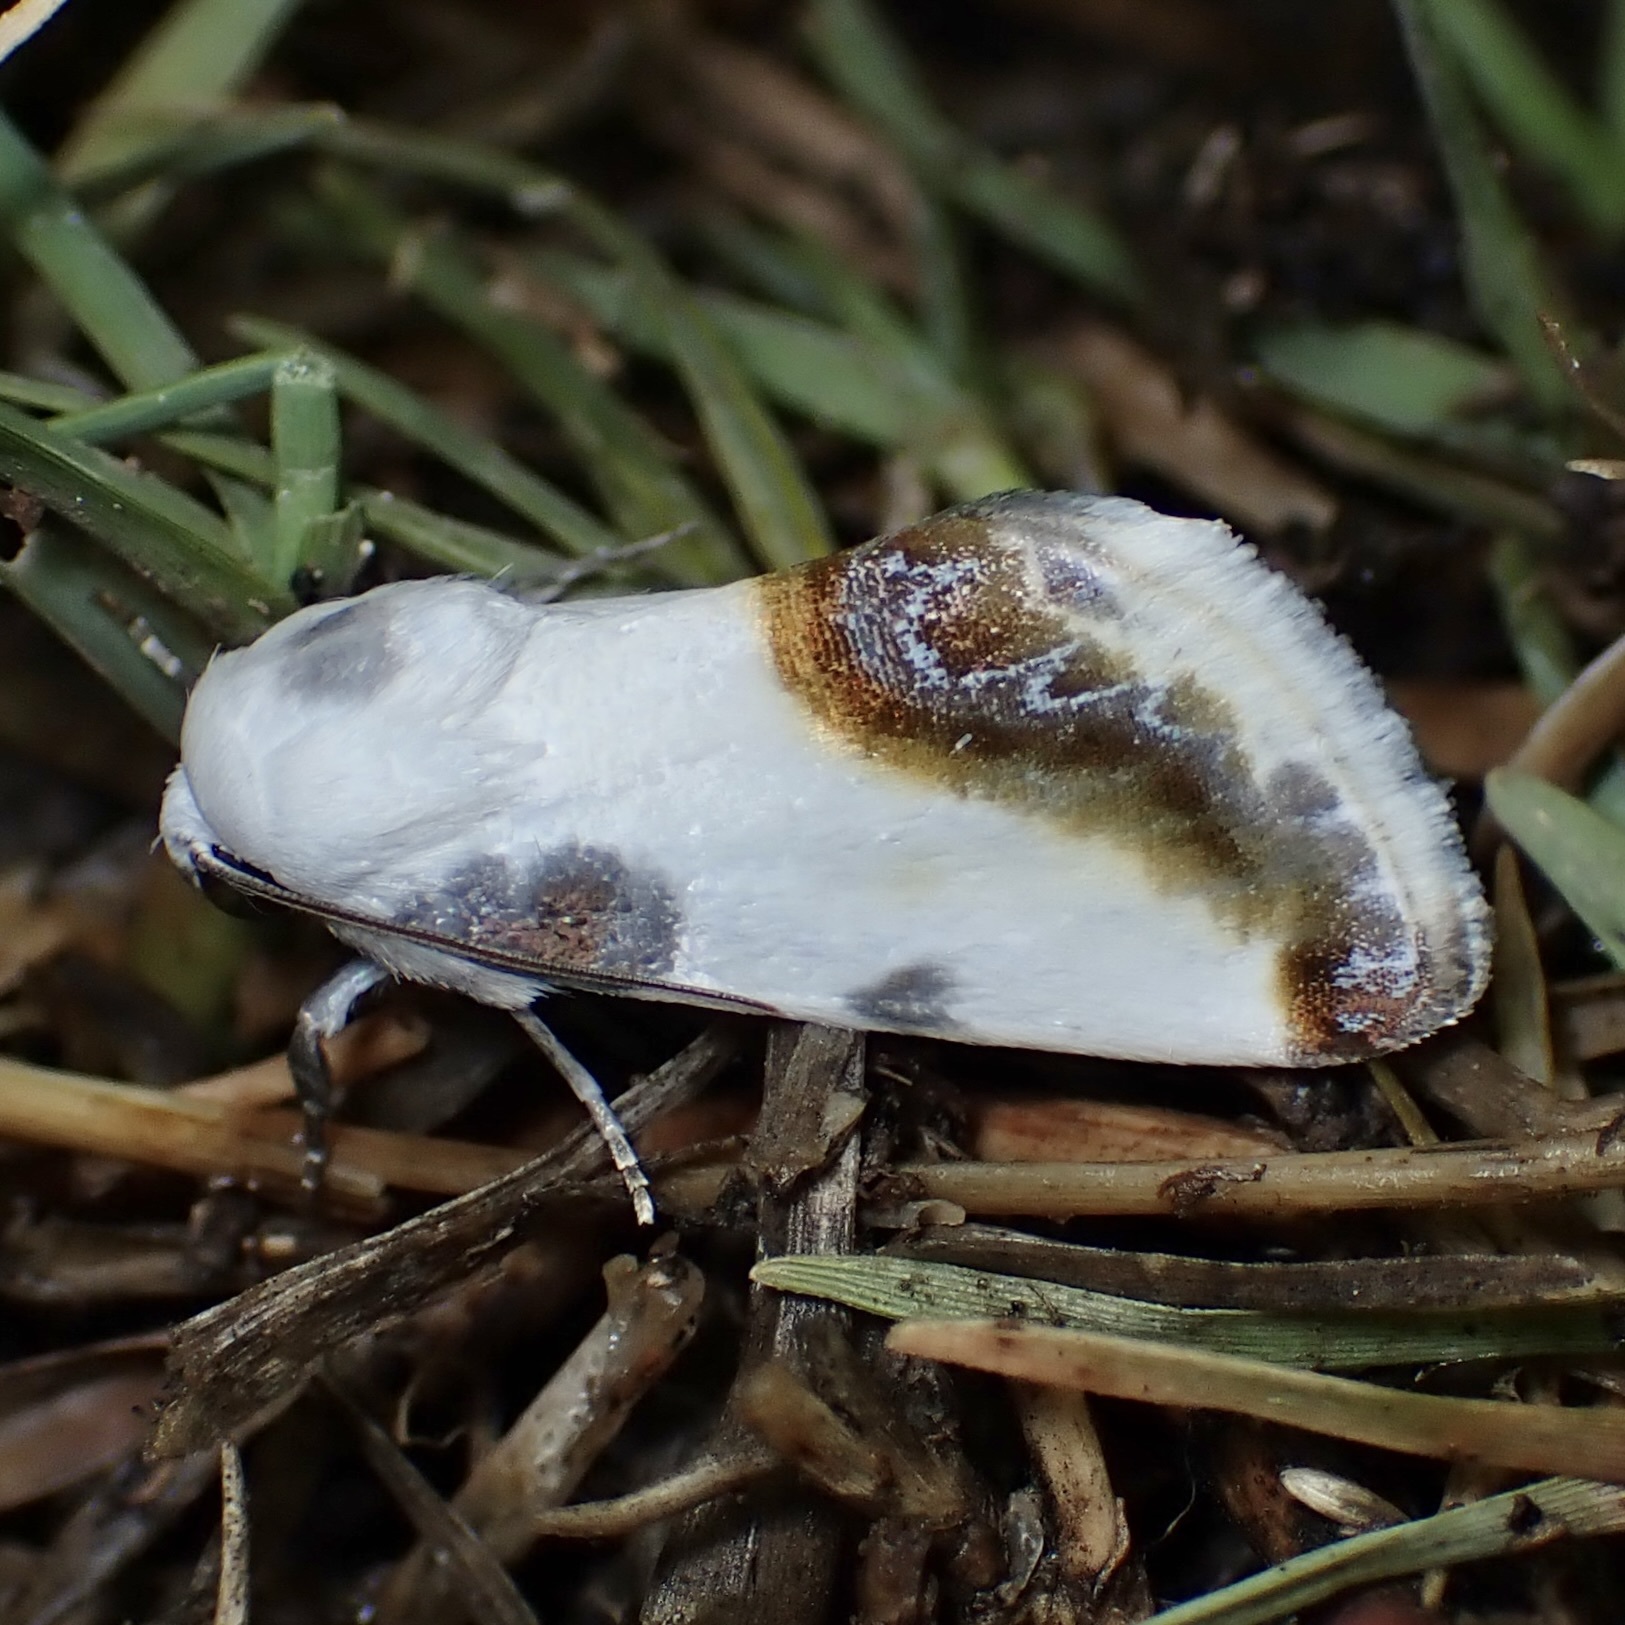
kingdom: Animalia
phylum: Arthropoda
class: Insecta
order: Lepidoptera
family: Noctuidae
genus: Acontia
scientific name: Acontia chea
